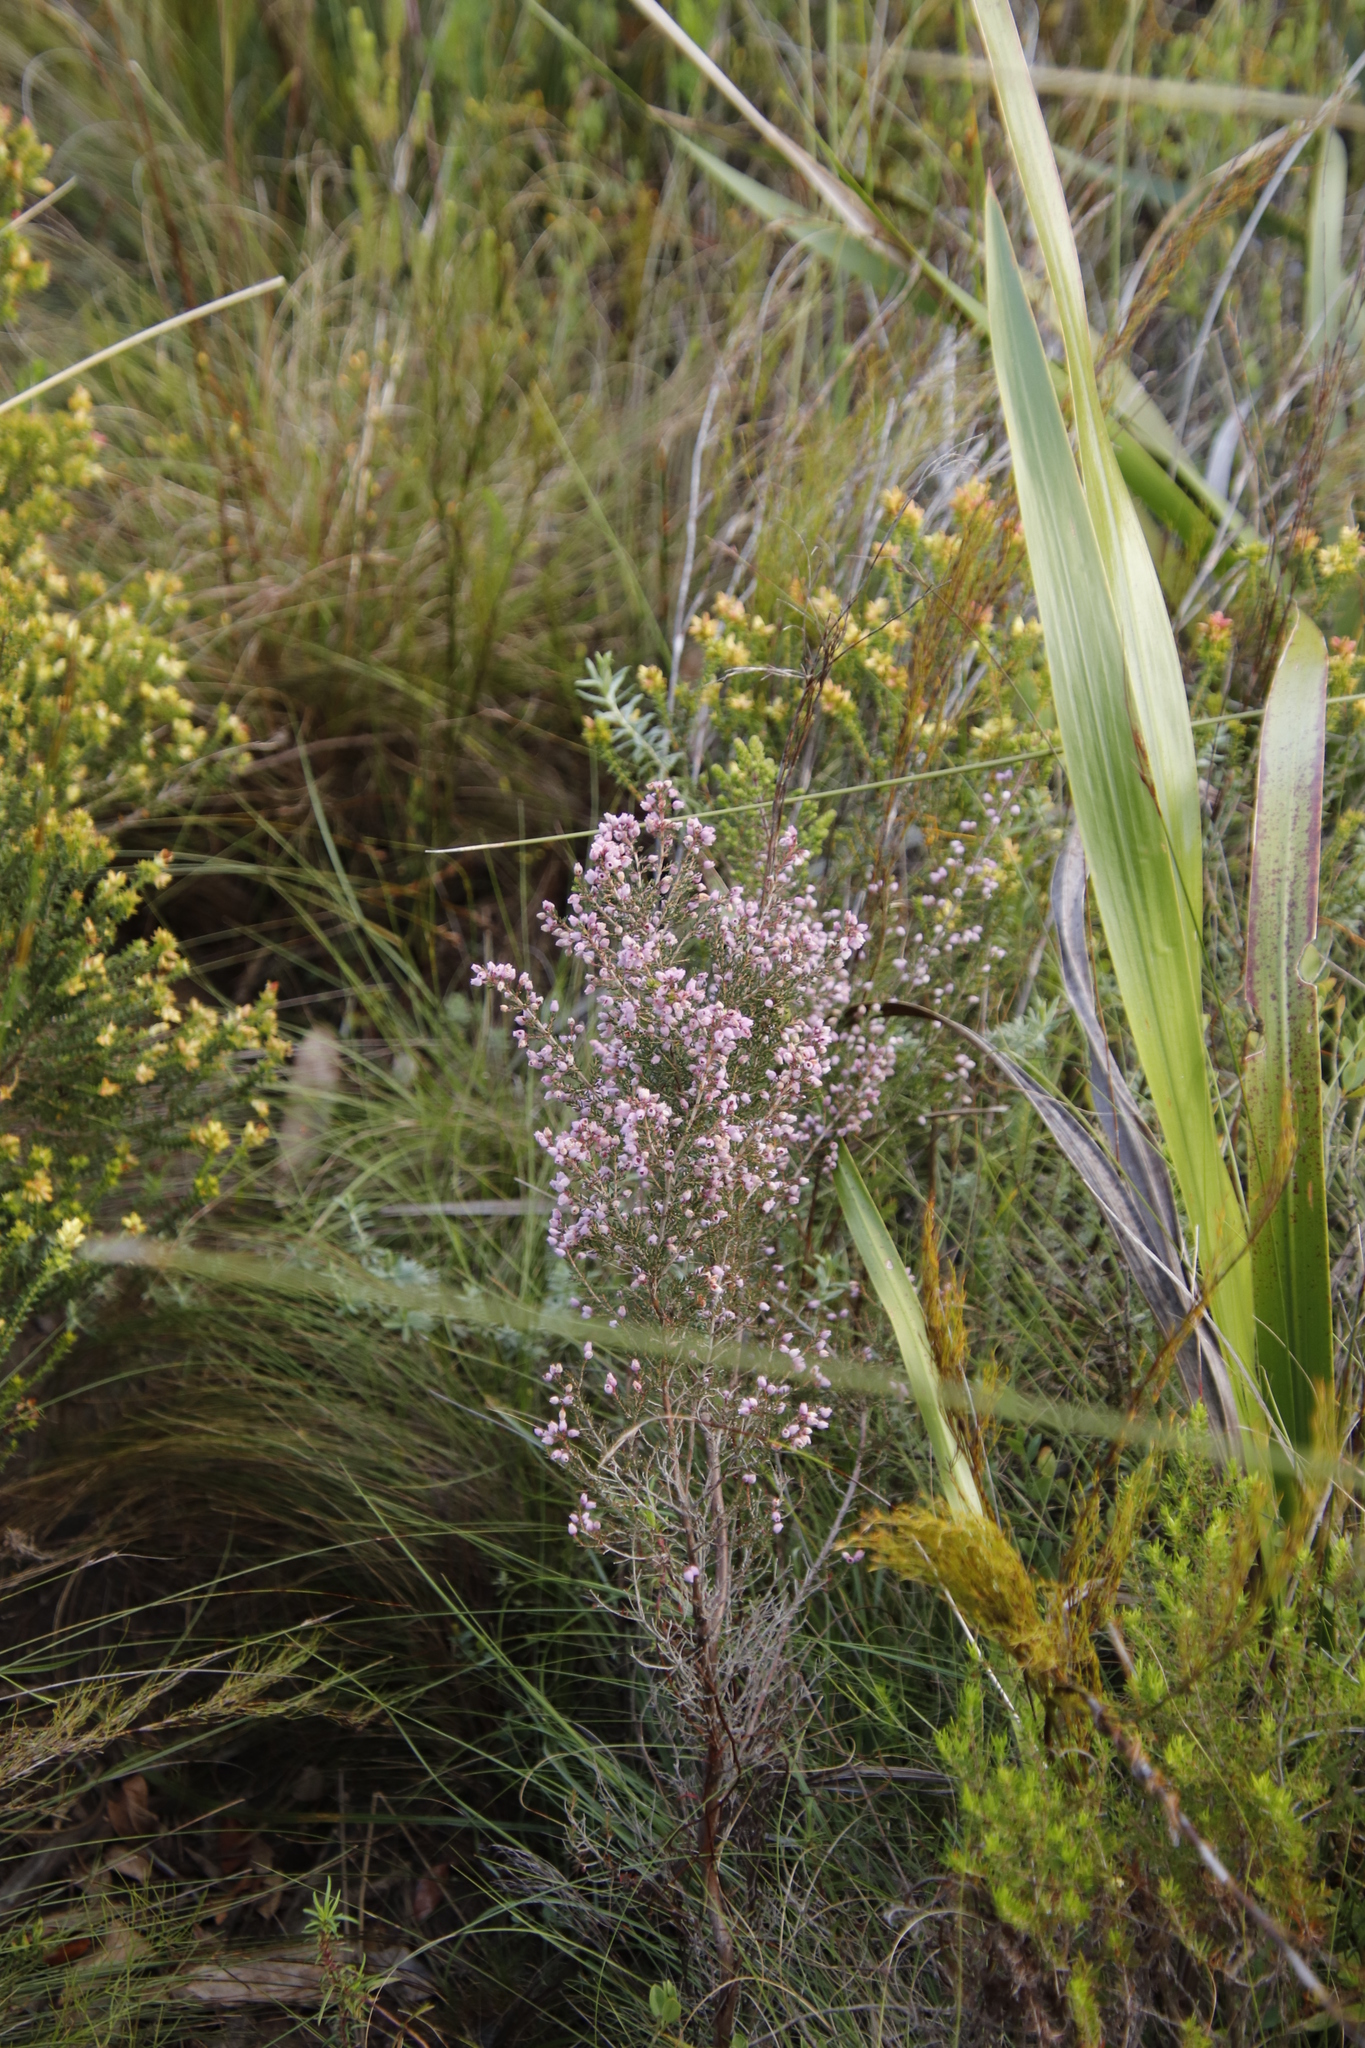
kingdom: Plantae
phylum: Tracheophyta
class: Magnoliopsida
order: Ericales
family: Ericaceae
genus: Erica
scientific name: Erica hirtiflora
